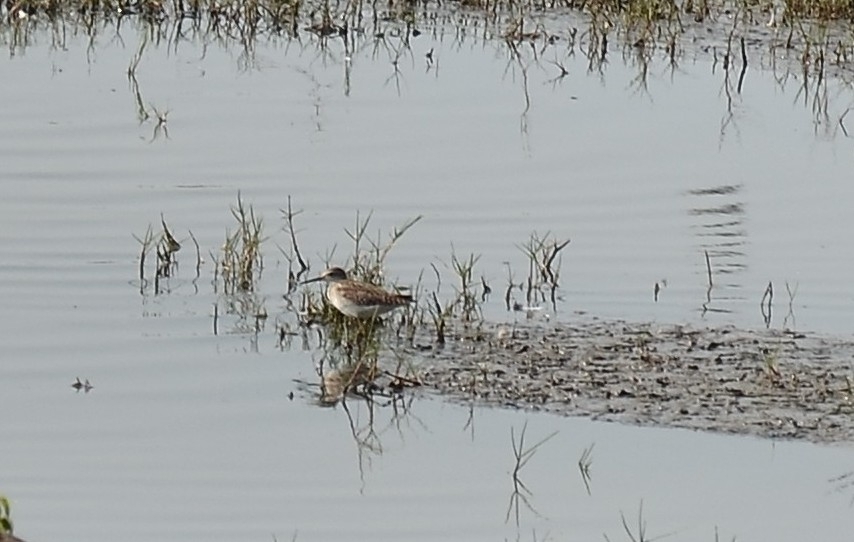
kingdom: Animalia
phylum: Chordata
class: Aves
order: Charadriiformes
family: Scolopacidae
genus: Tringa
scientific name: Tringa glareola
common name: Wood sandpiper
